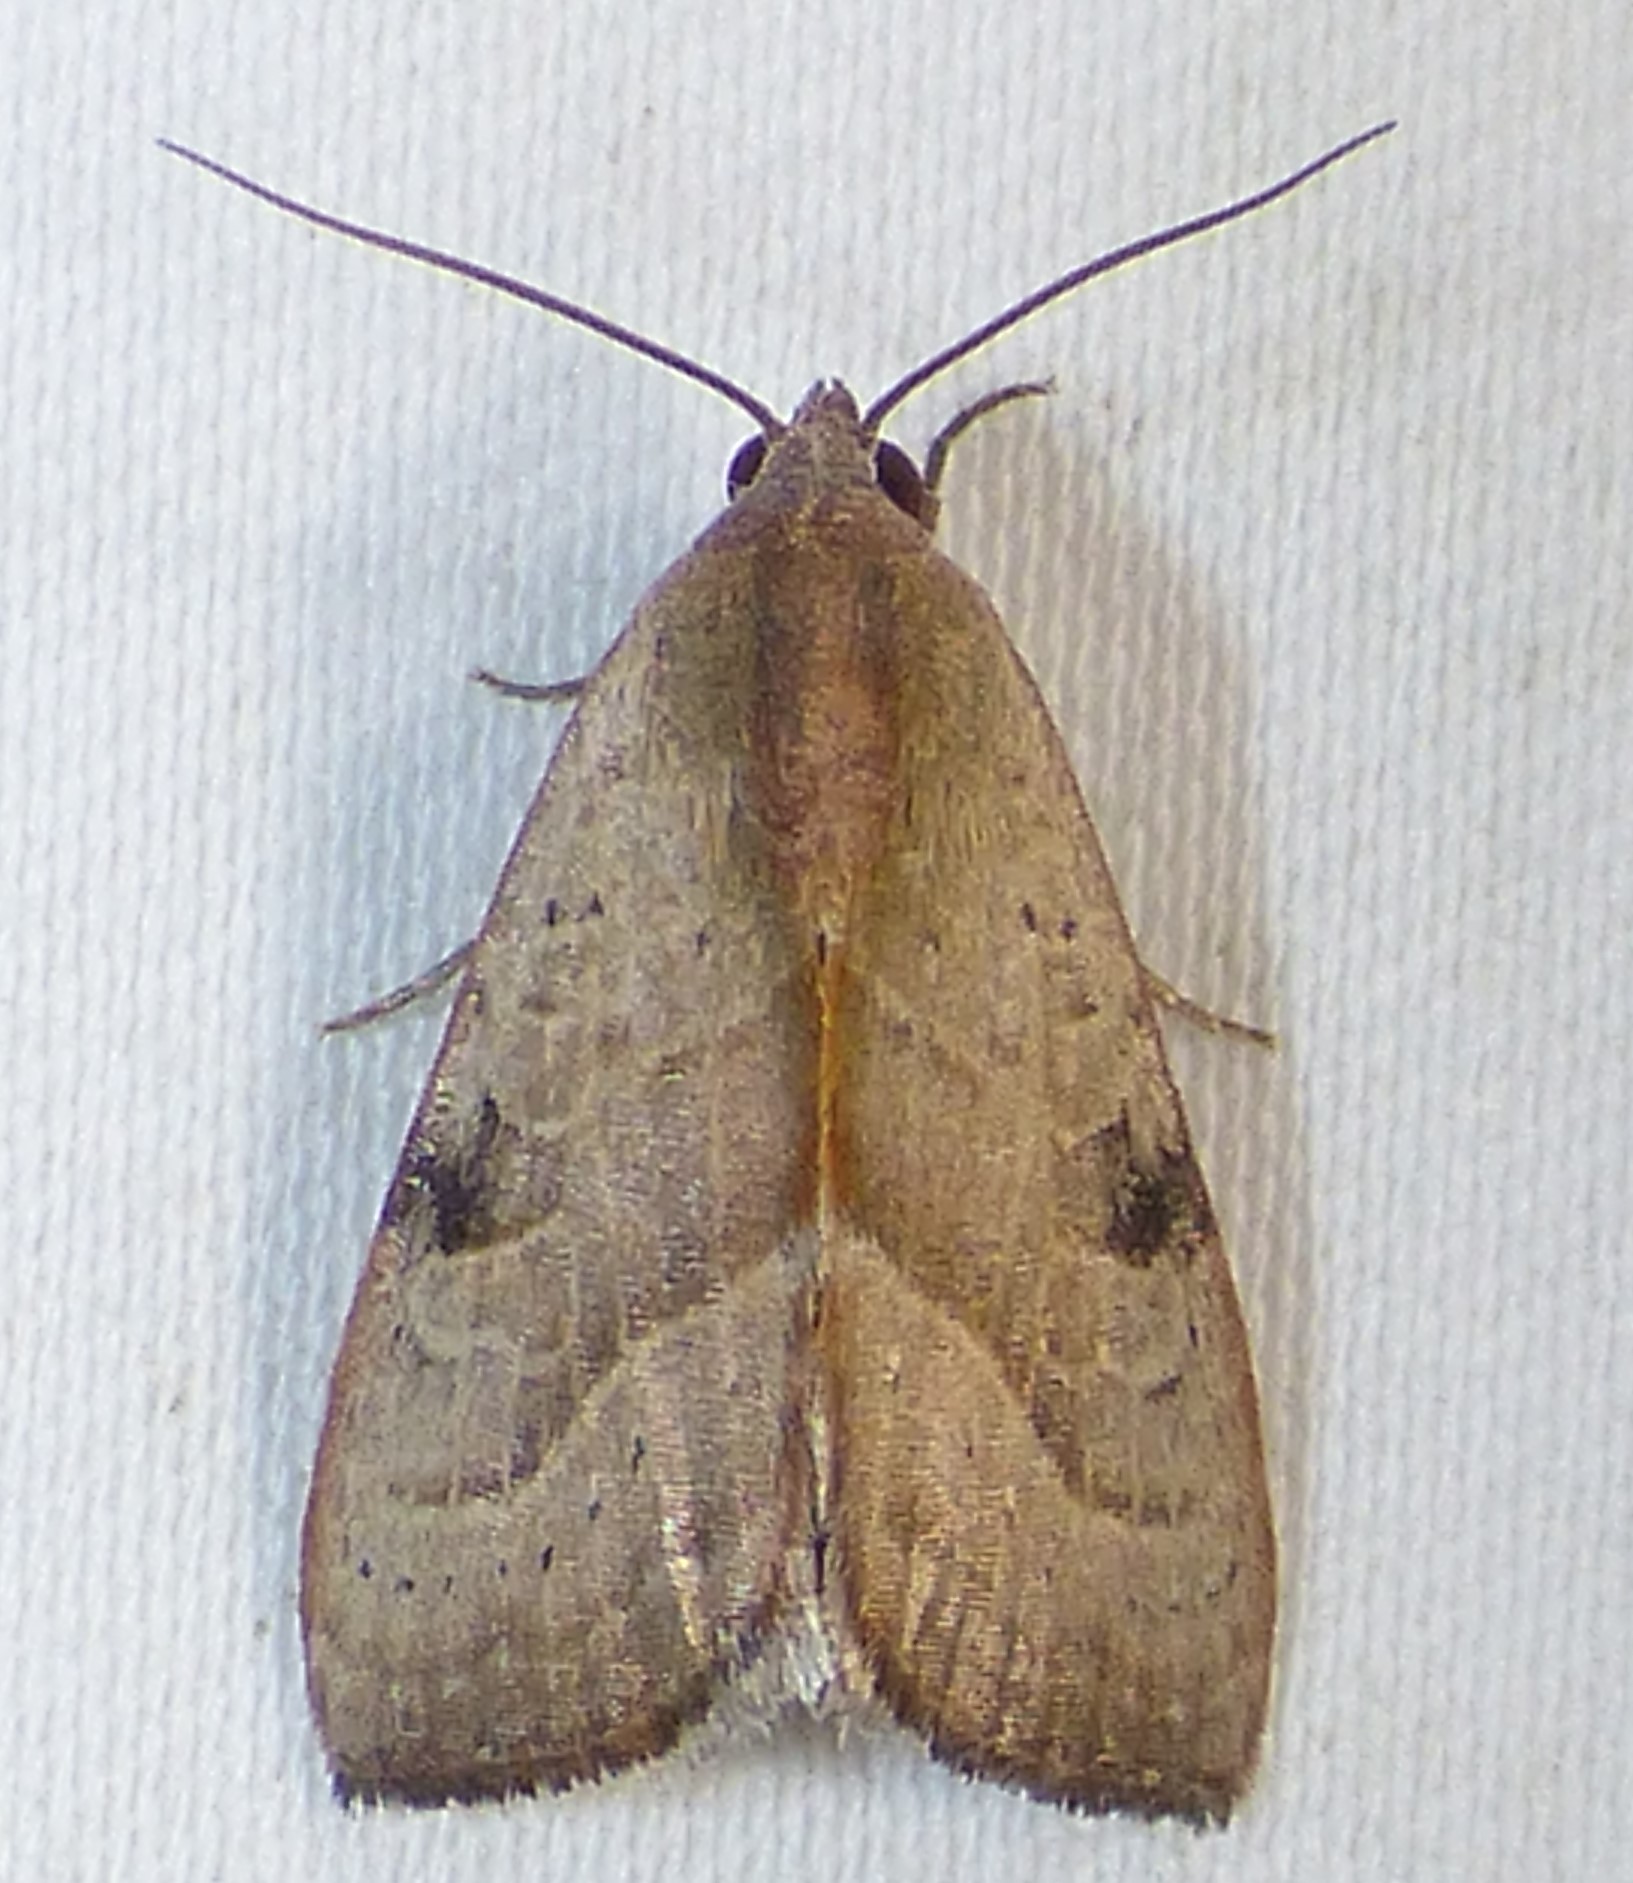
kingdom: Animalia
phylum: Arthropoda
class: Insecta
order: Lepidoptera
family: Noctuidae
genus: Galgula
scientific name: Galgula partita
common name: Wedgeling
